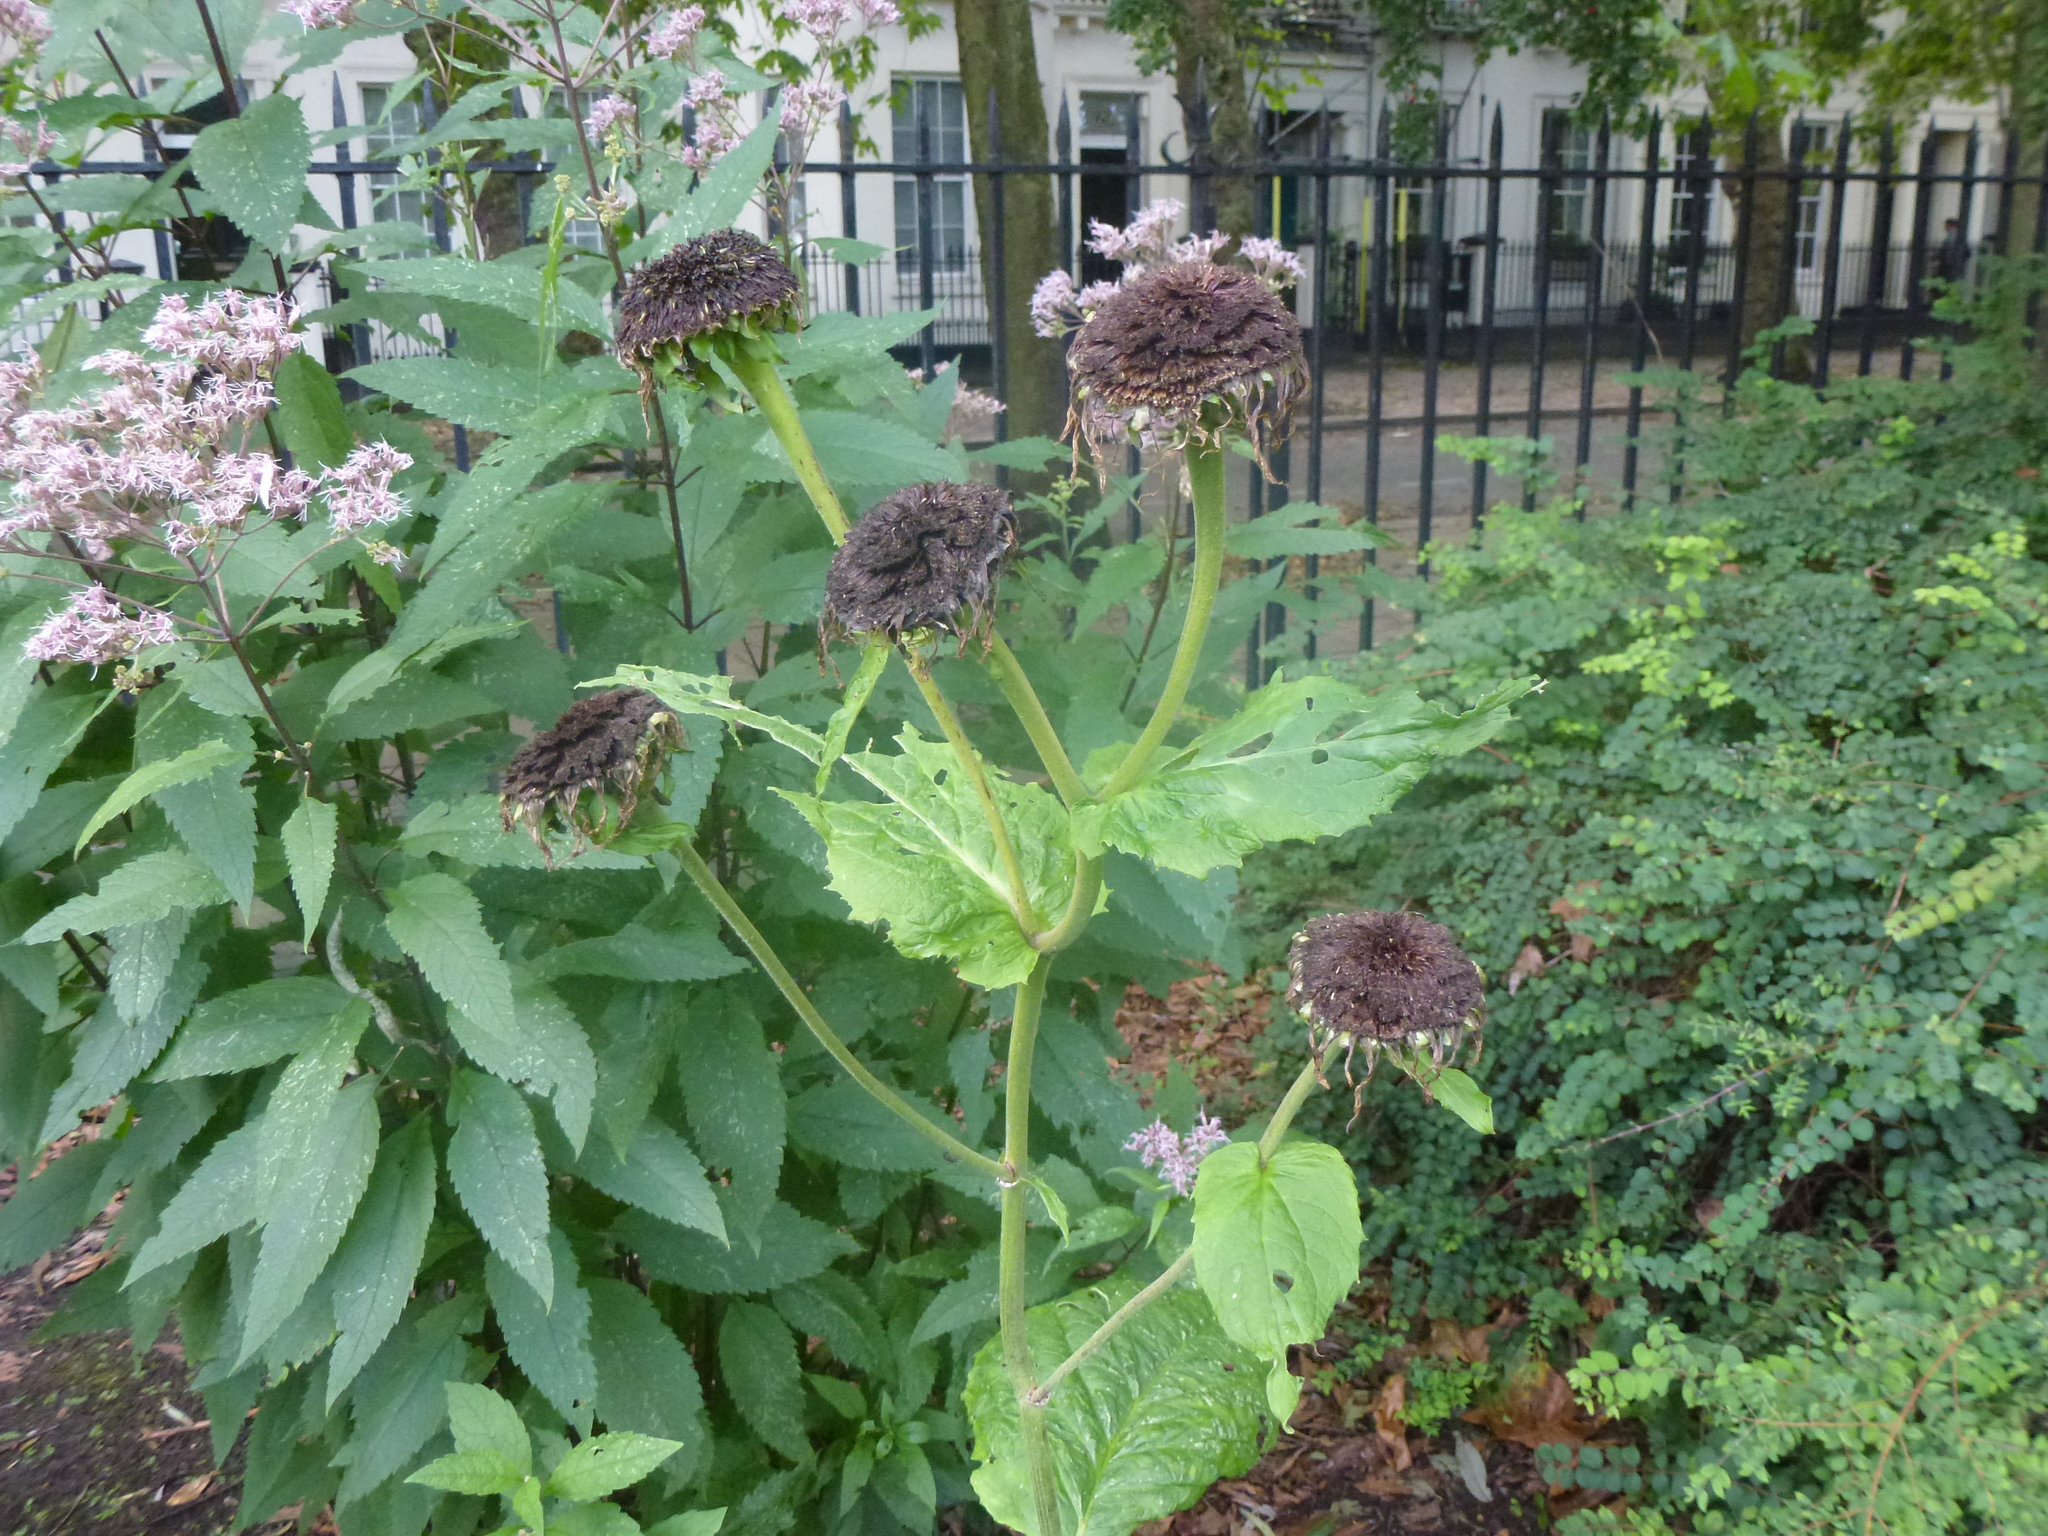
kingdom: Plantae
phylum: Tracheophyta
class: Magnoliopsida
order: Asterales
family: Asteraceae
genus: Telekia
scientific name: Telekia speciosa
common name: Yellow oxeye
